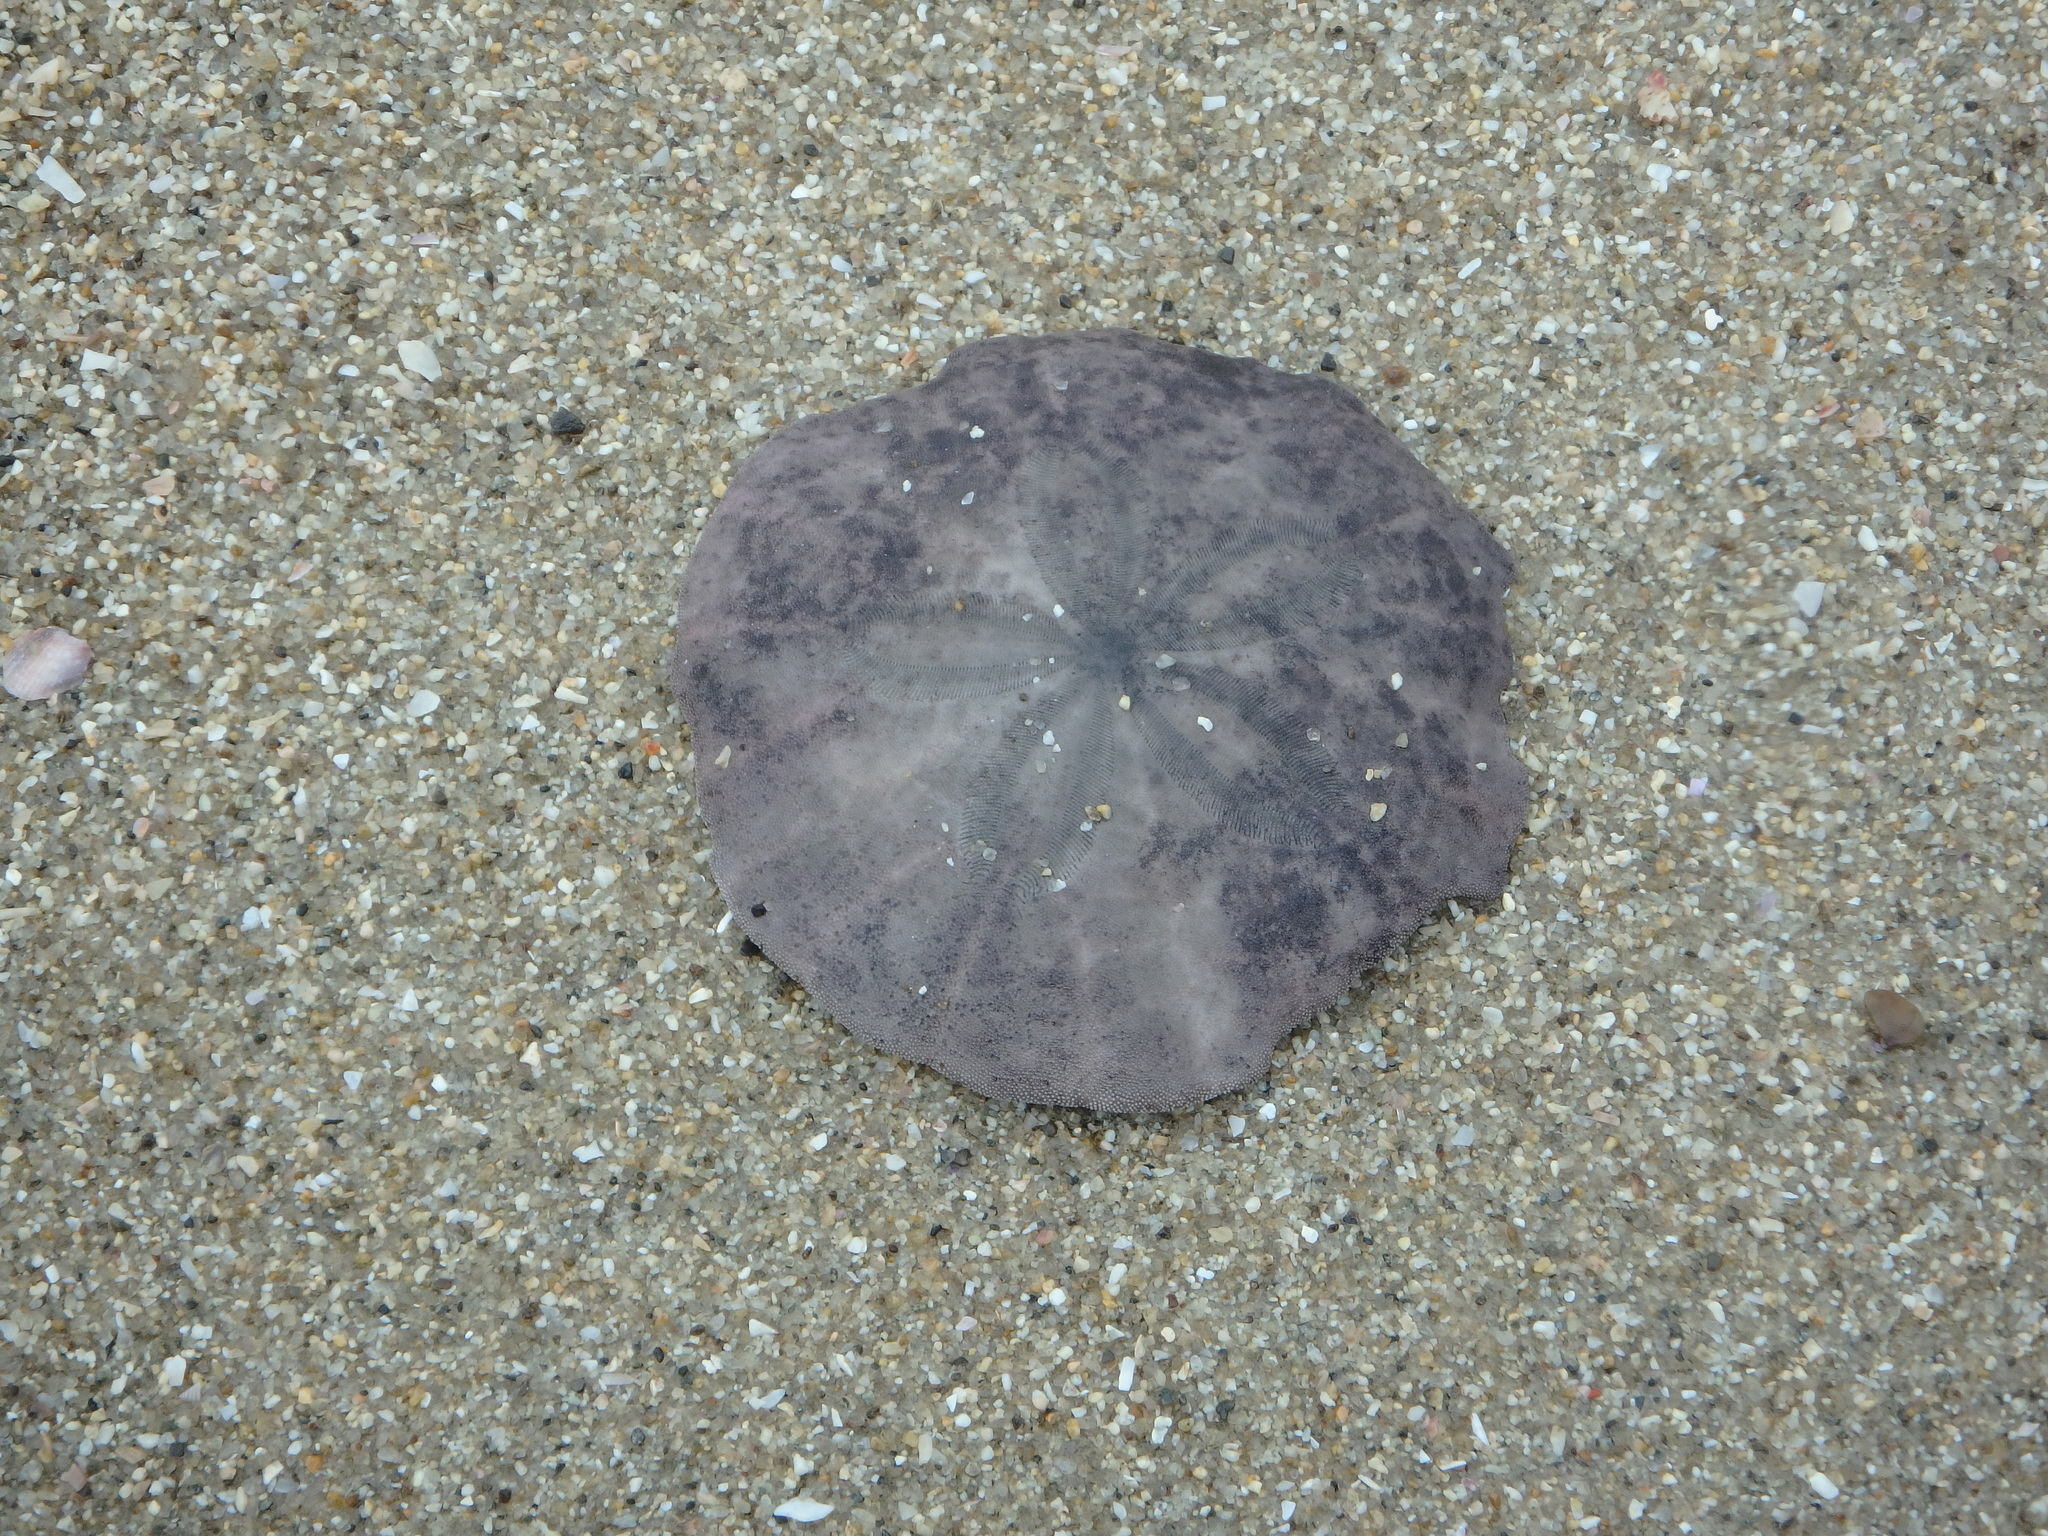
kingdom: Animalia
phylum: Echinodermata
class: Echinoidea
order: Echinolampadacea
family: Scutellidae
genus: Scaphechinus
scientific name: Scaphechinus mirabilis
